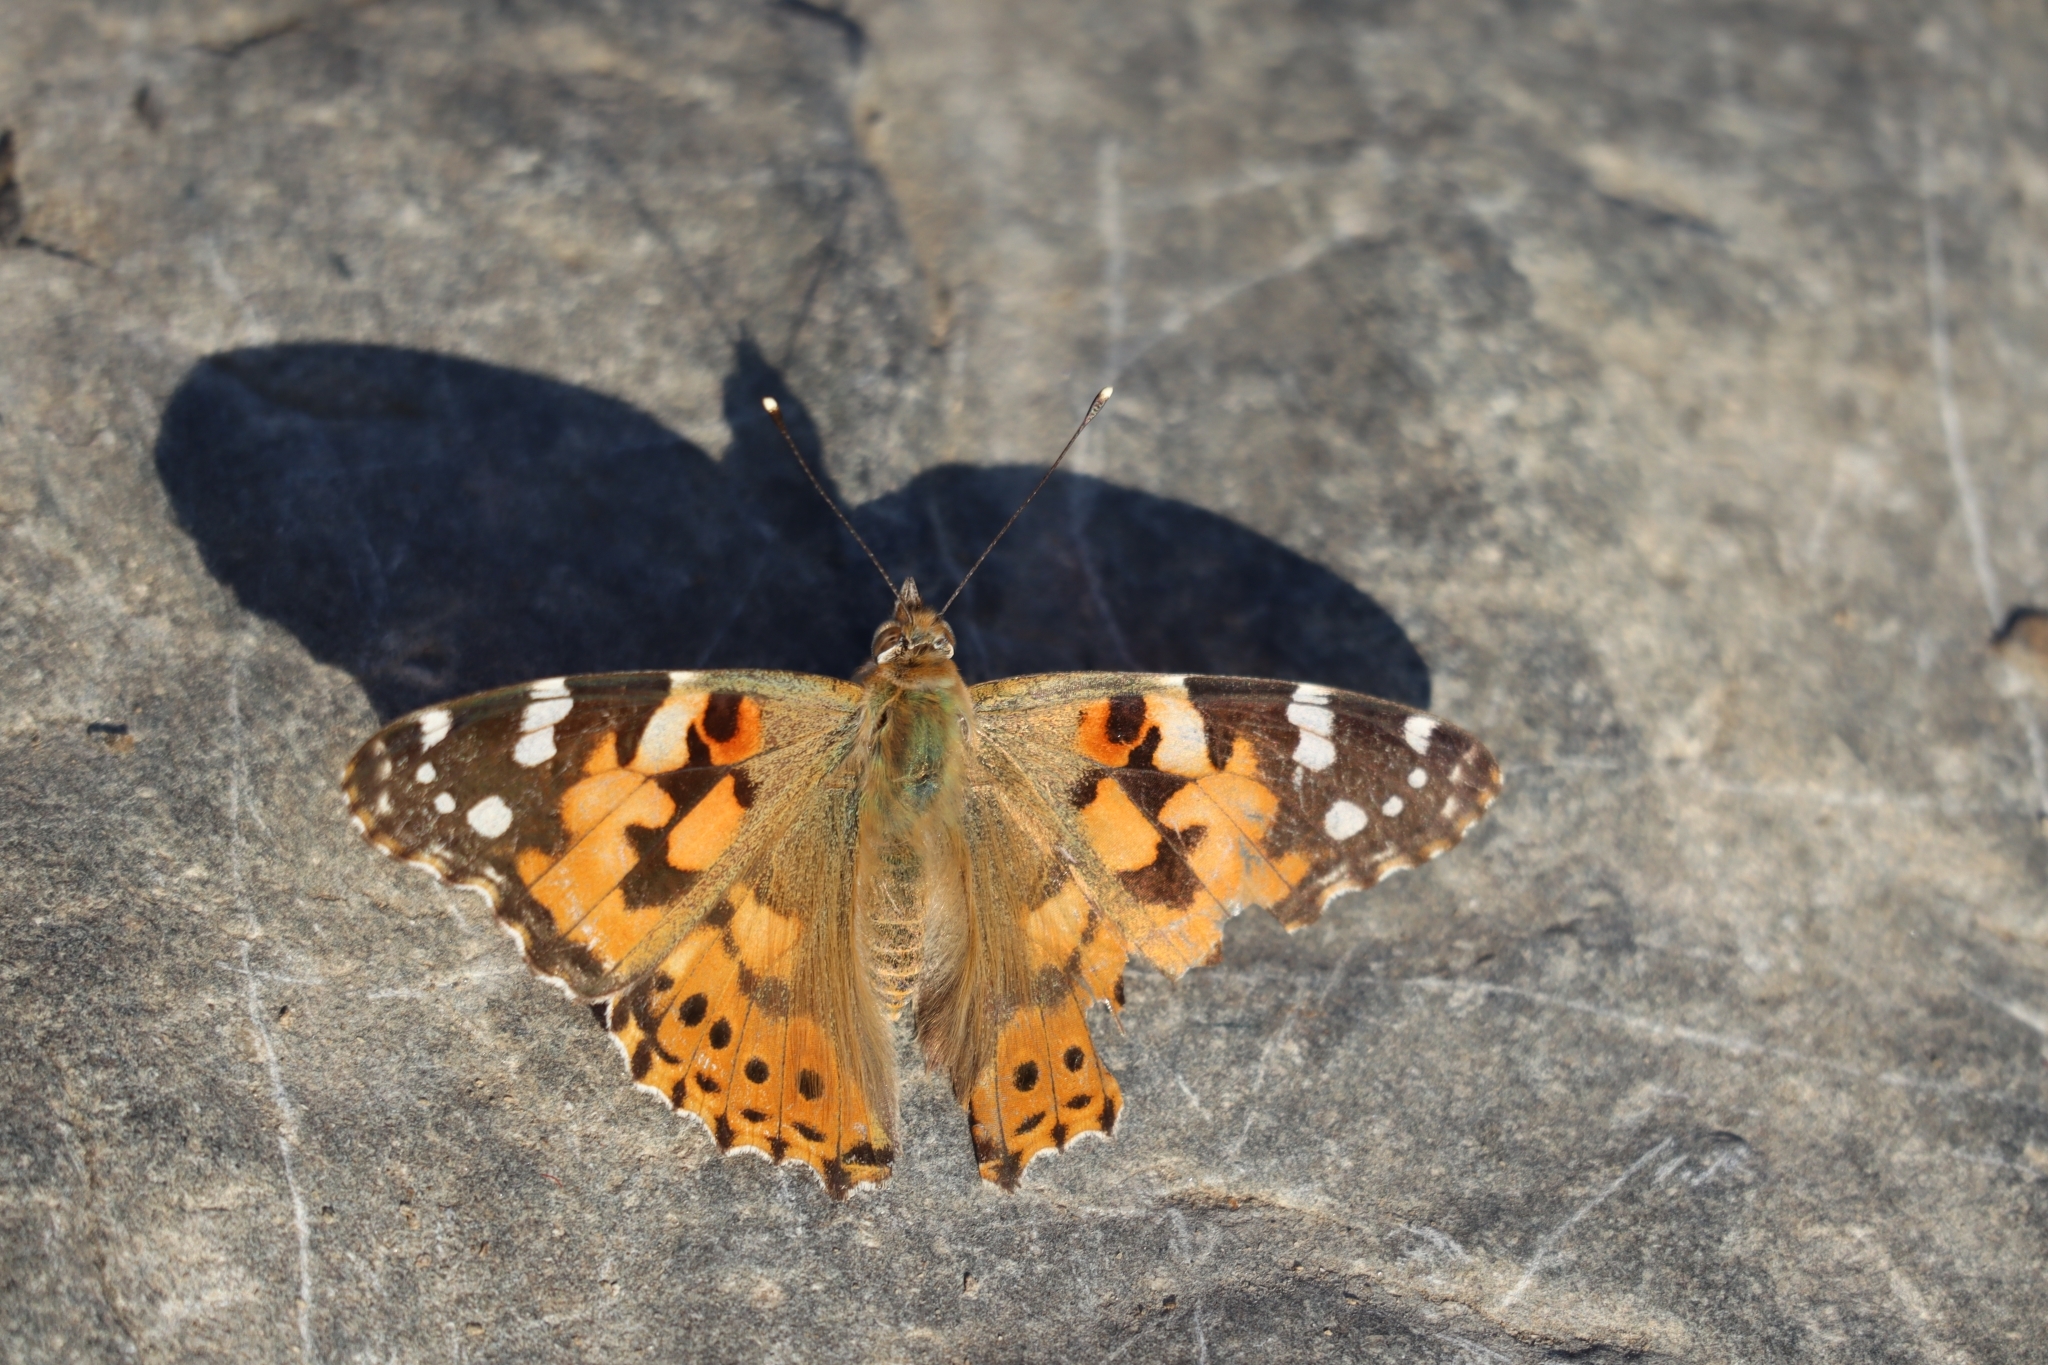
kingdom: Animalia
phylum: Arthropoda
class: Insecta
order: Lepidoptera
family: Nymphalidae
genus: Vanessa
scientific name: Vanessa cardui
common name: Painted lady
